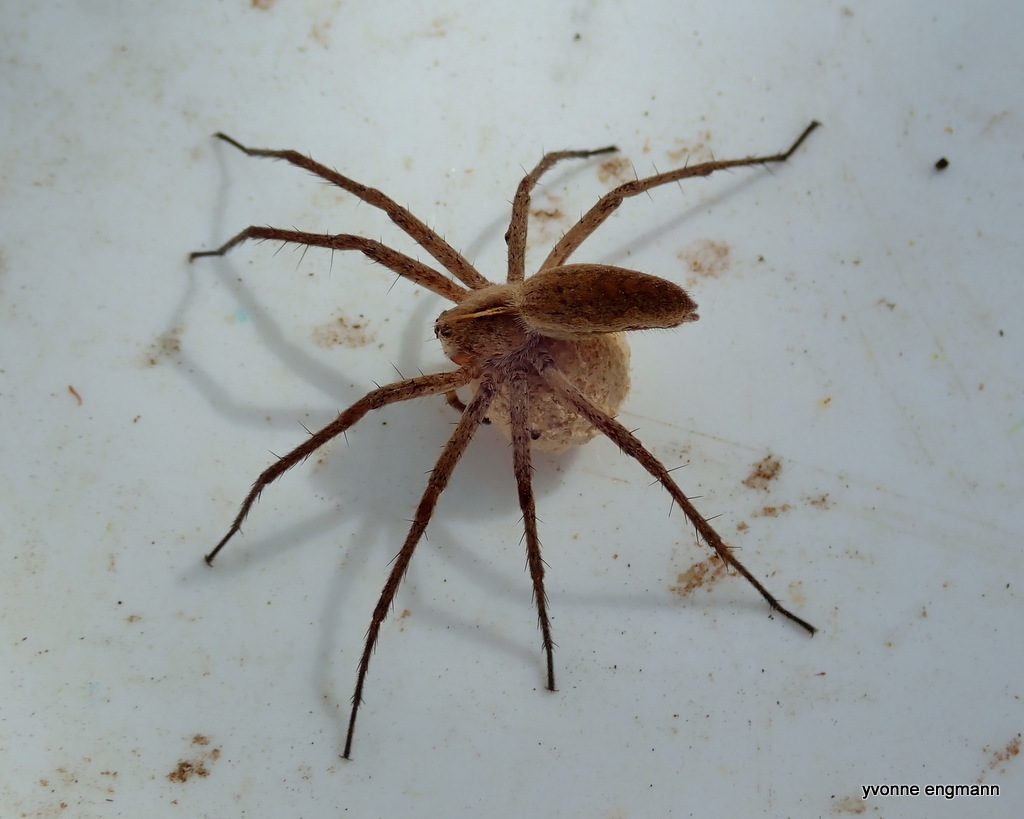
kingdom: Animalia
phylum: Arthropoda
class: Arachnida
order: Araneae
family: Pisauridae
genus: Pisaura
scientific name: Pisaura mirabilis
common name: Tent spider
